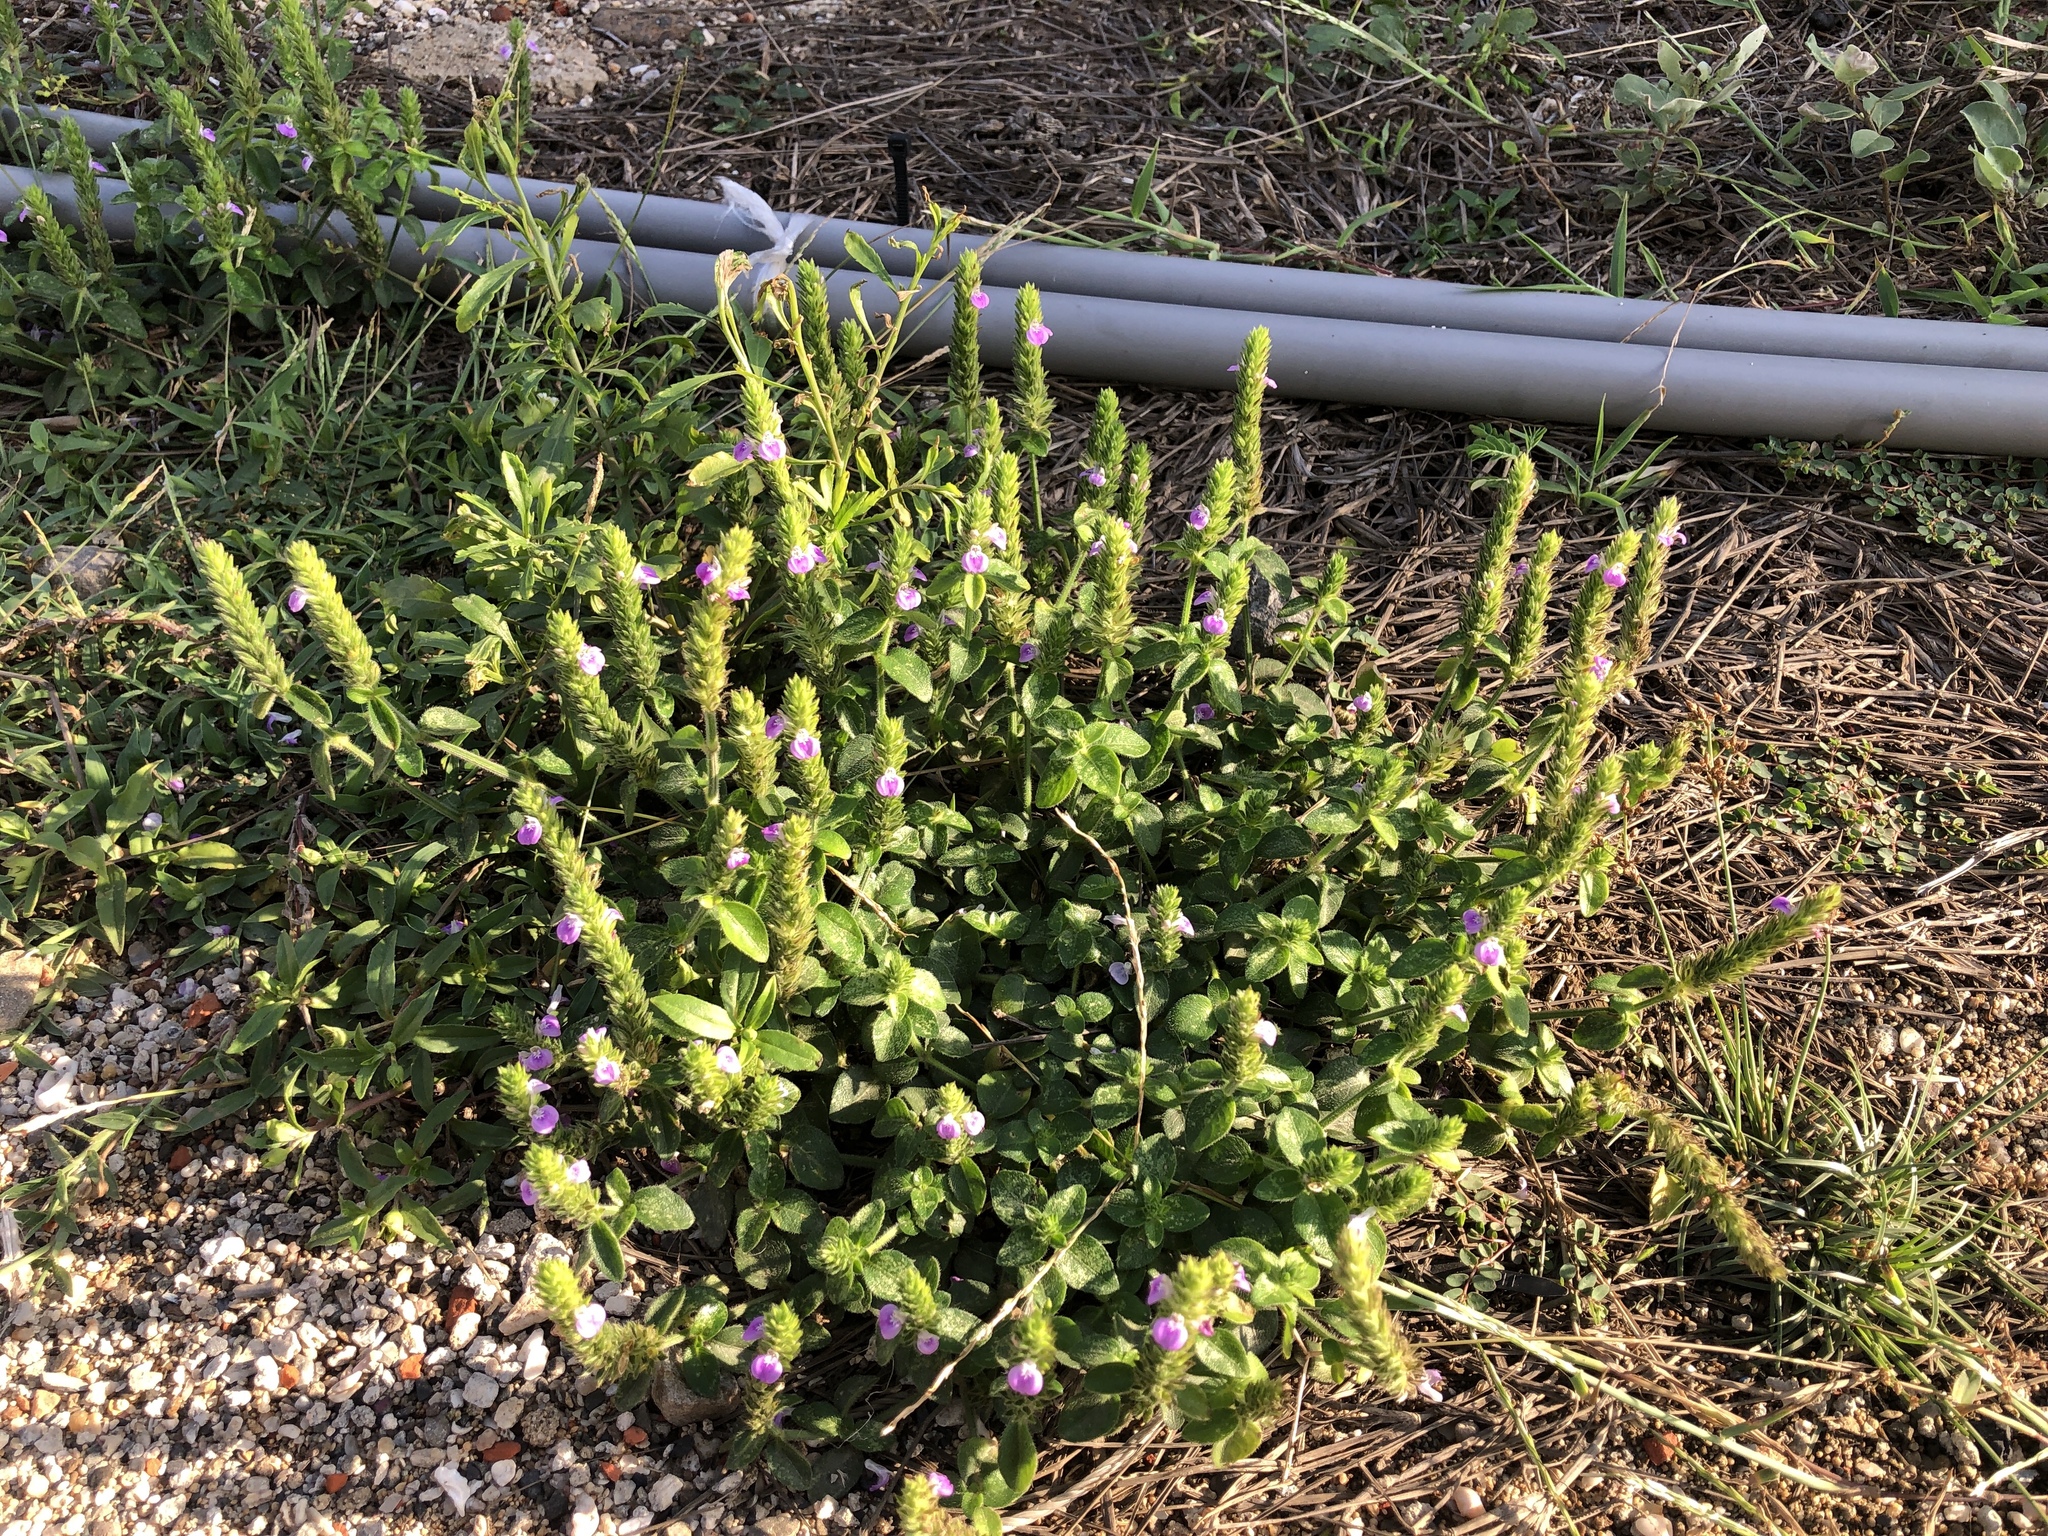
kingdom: Plantae
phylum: Tracheophyta
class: Magnoliopsida
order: Lamiales
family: Acanthaceae
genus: Rostellularia
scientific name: Rostellularia procumbens
